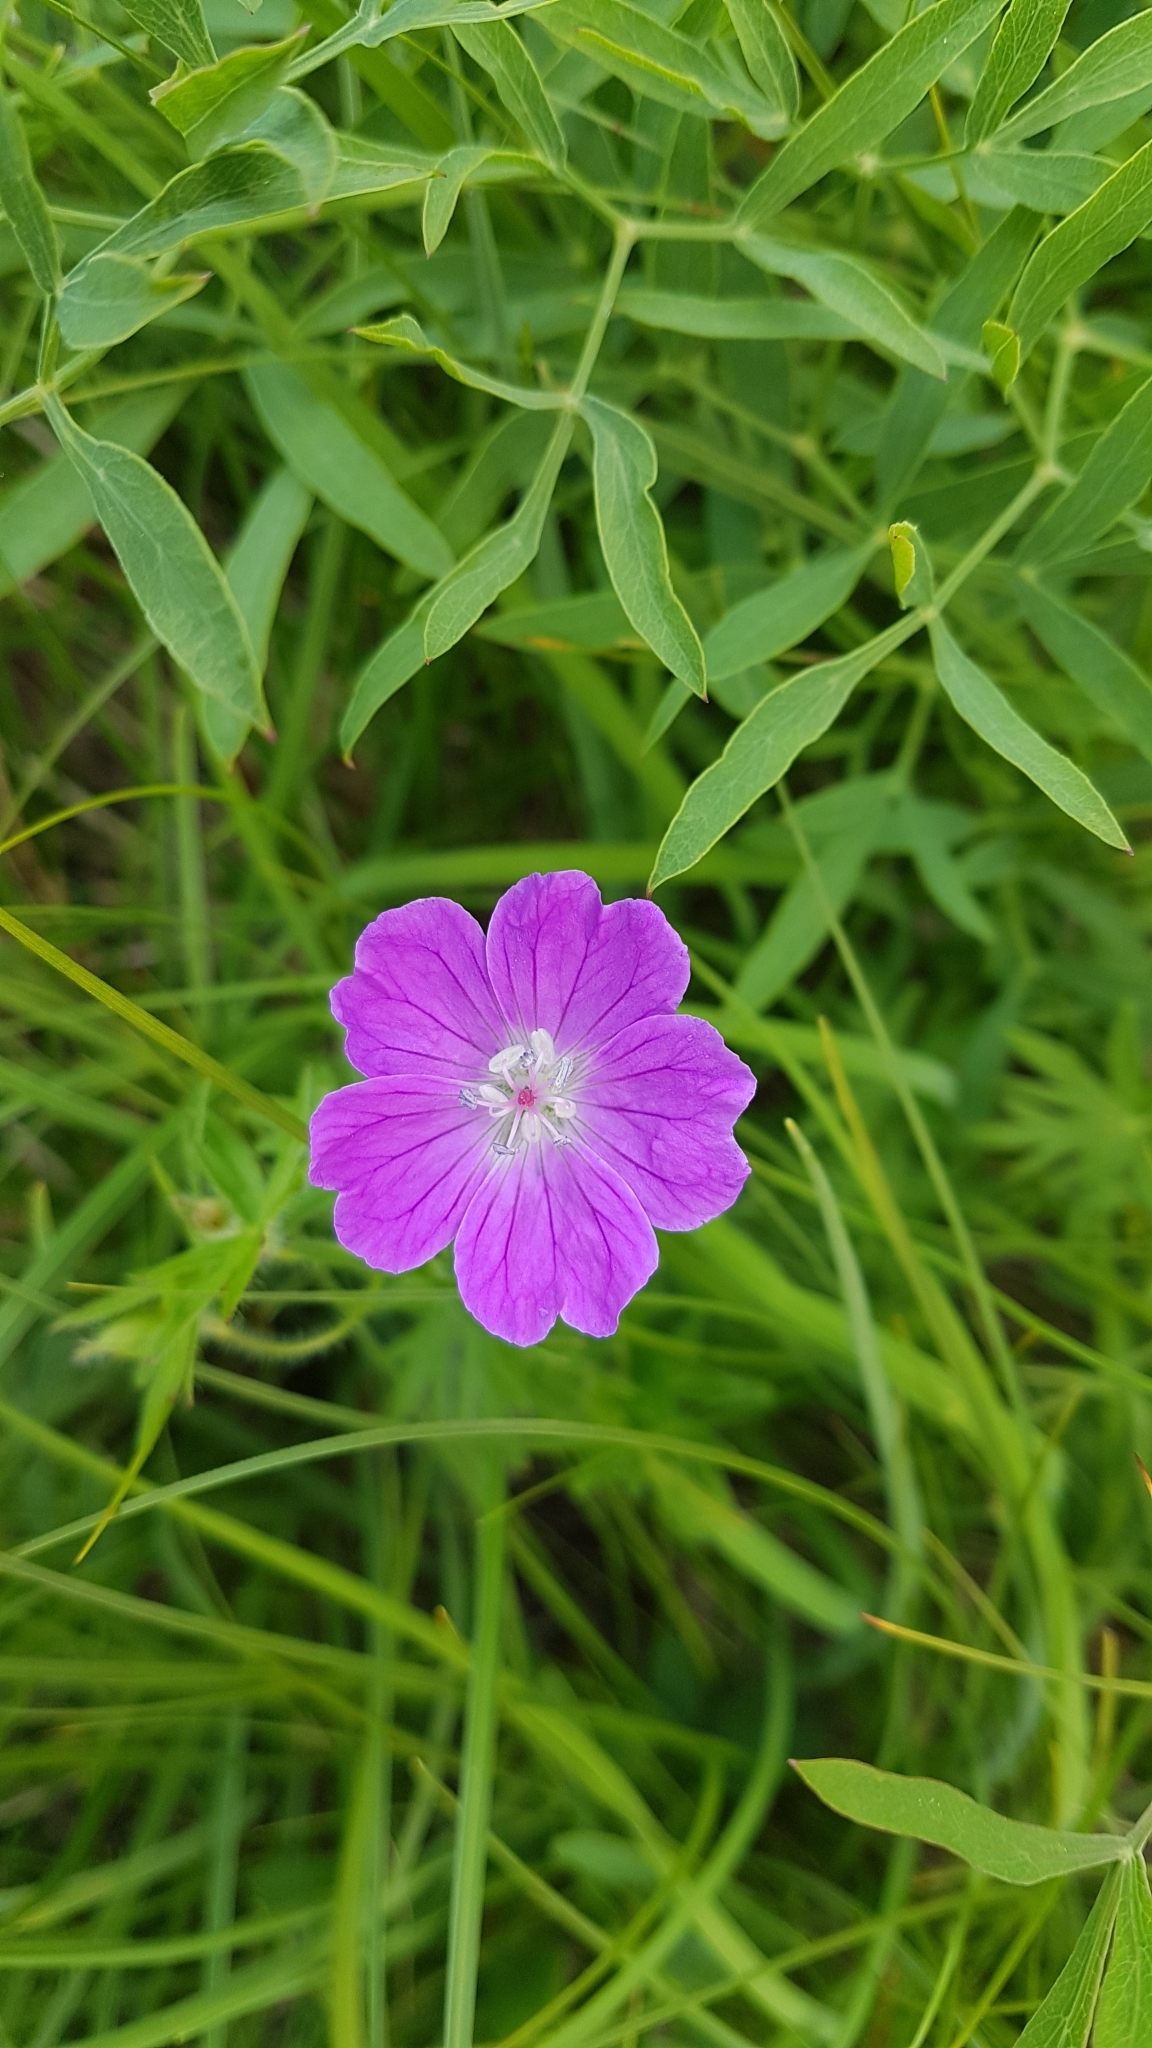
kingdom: Plantae
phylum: Tracheophyta
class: Magnoliopsida
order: Geraniales
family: Geraniaceae
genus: Geranium
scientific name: Geranium sanguineum
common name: Bloody crane's-bill
